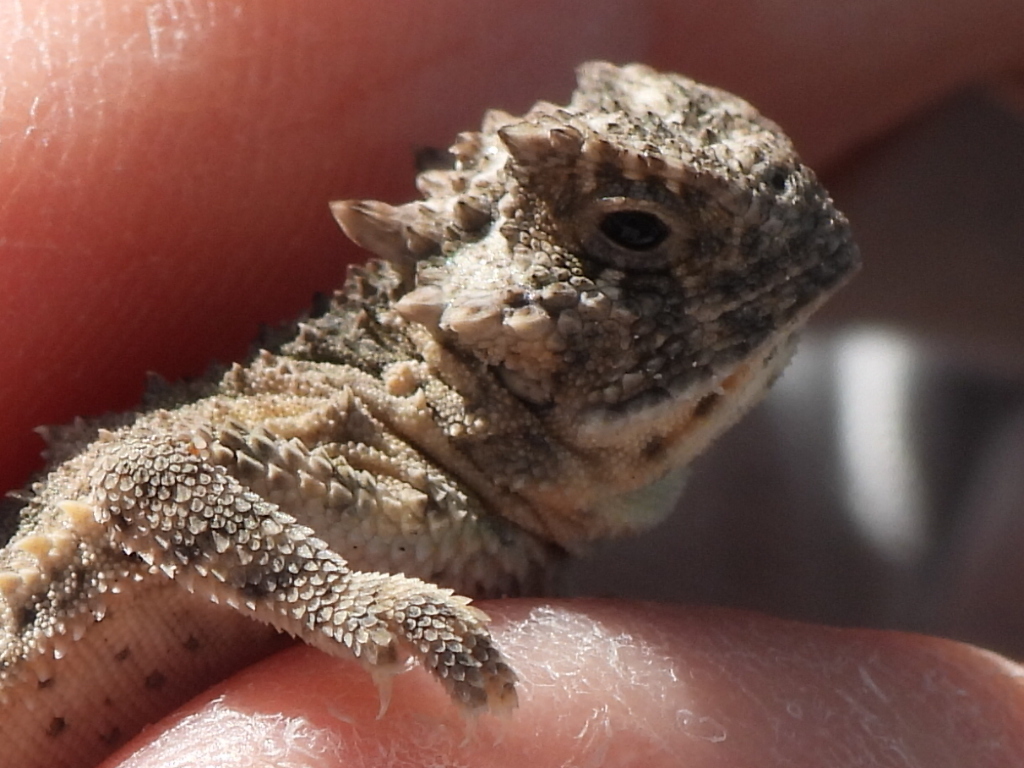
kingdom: Animalia
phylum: Chordata
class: Squamata
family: Phrynosomatidae
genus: Phrynosoma
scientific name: Phrynosoma cornutum
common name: Texas horned lizard
